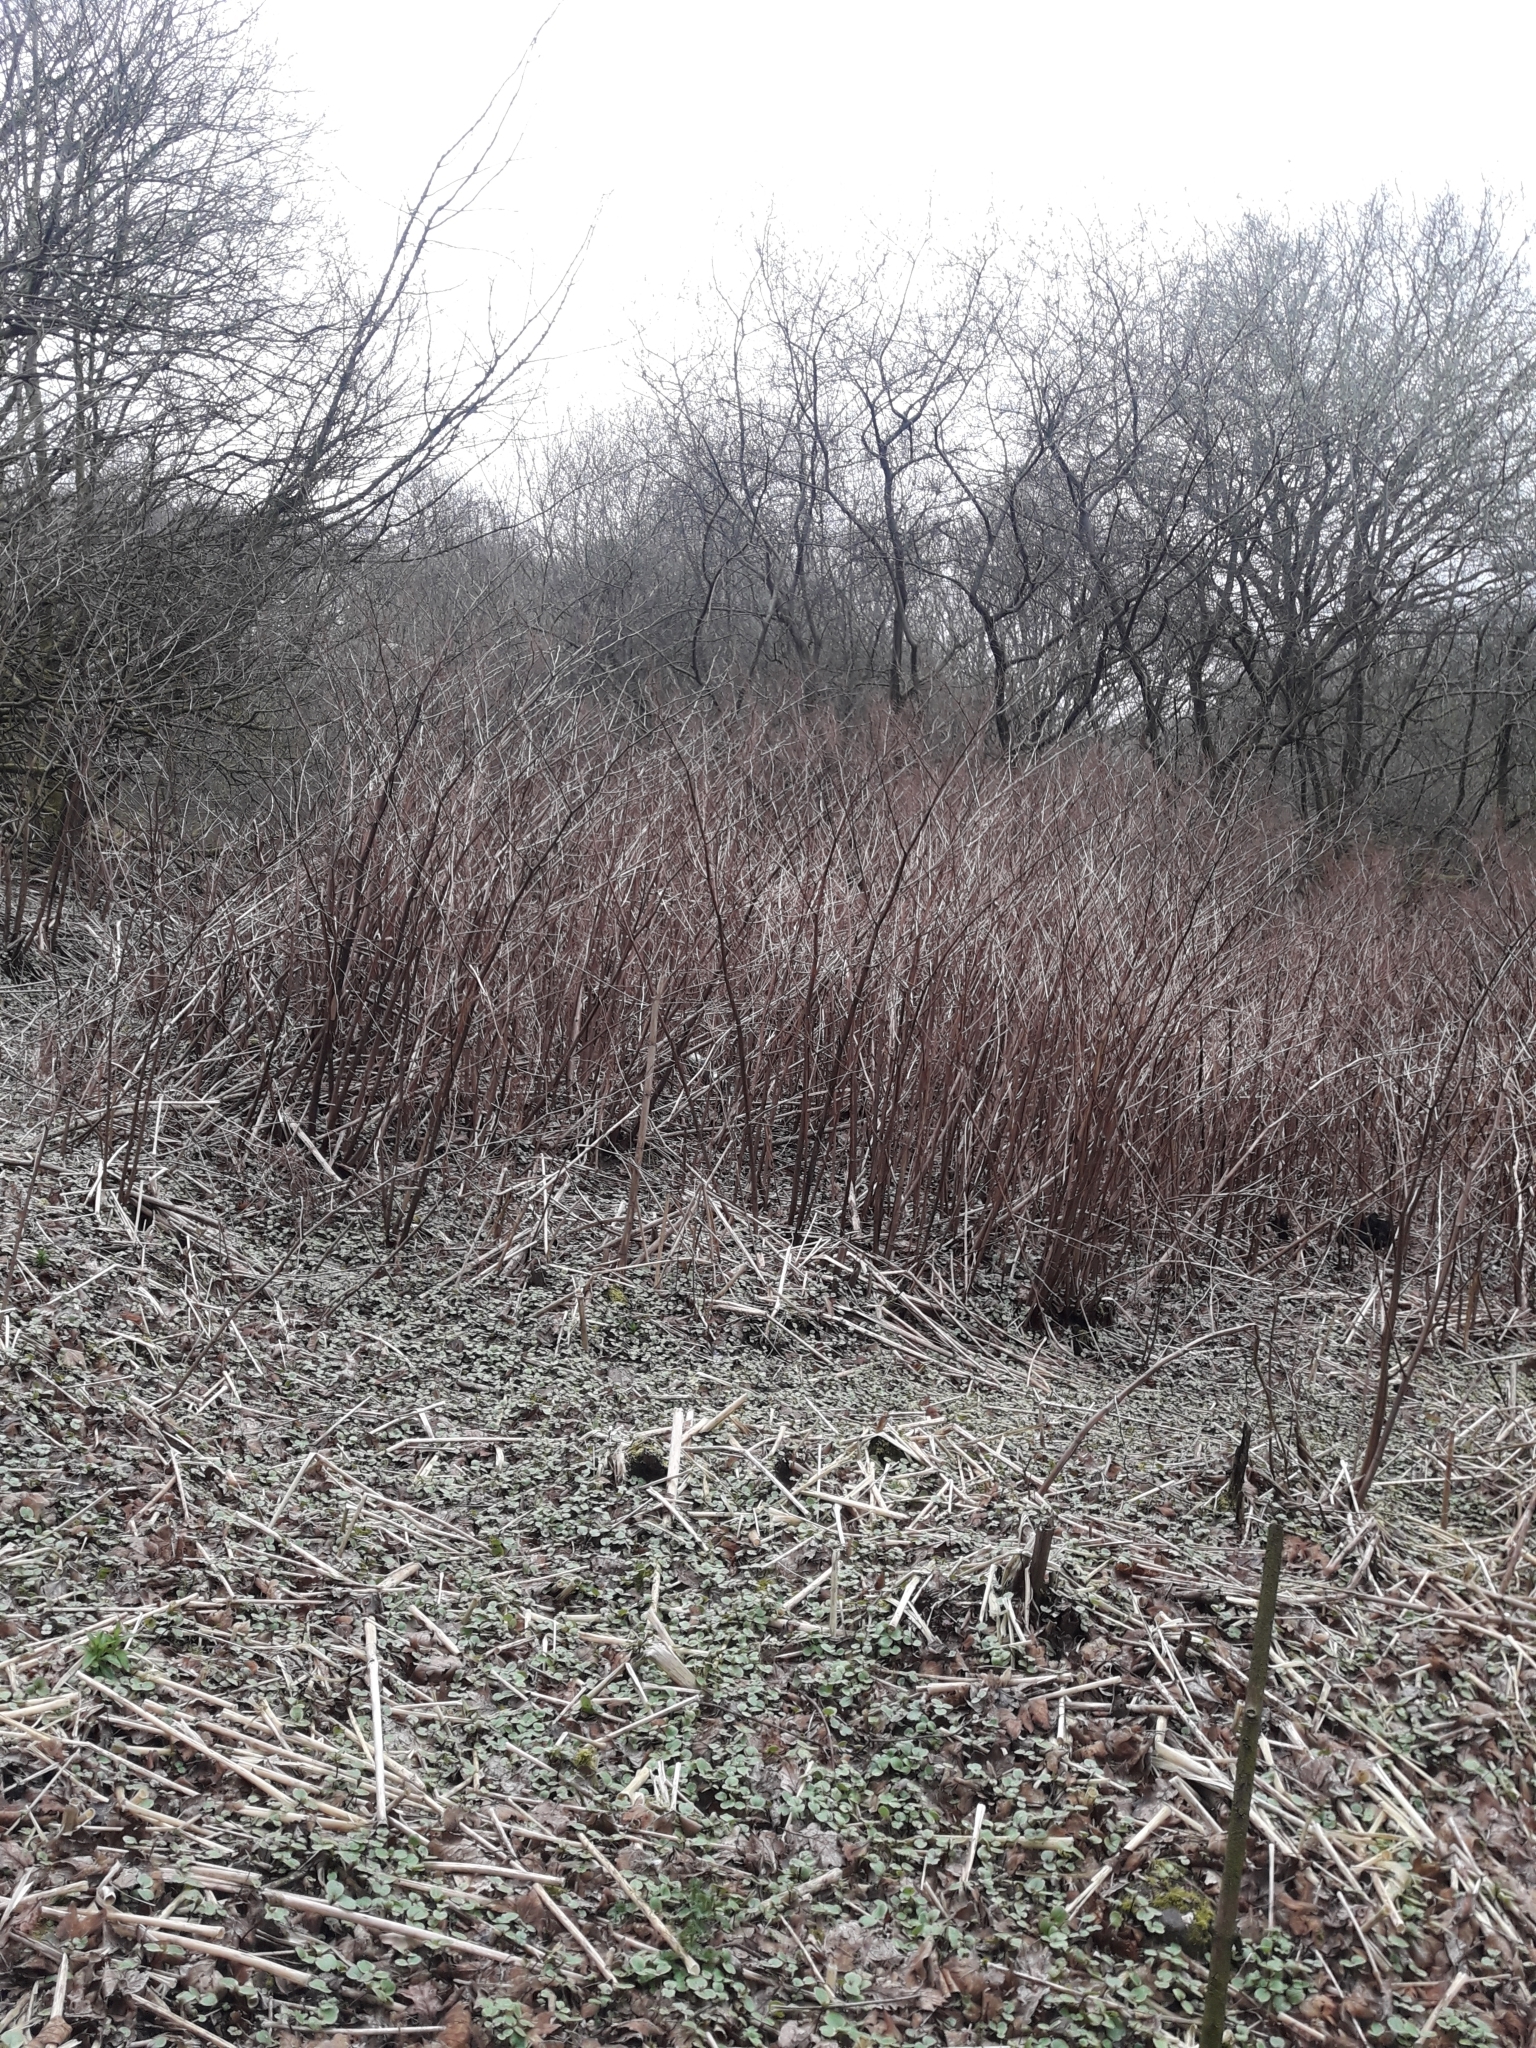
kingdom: Plantae
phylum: Tracheophyta
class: Magnoliopsida
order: Caryophyllales
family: Polygonaceae
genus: Reynoutria
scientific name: Reynoutria japonica
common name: Japanese knotweed
